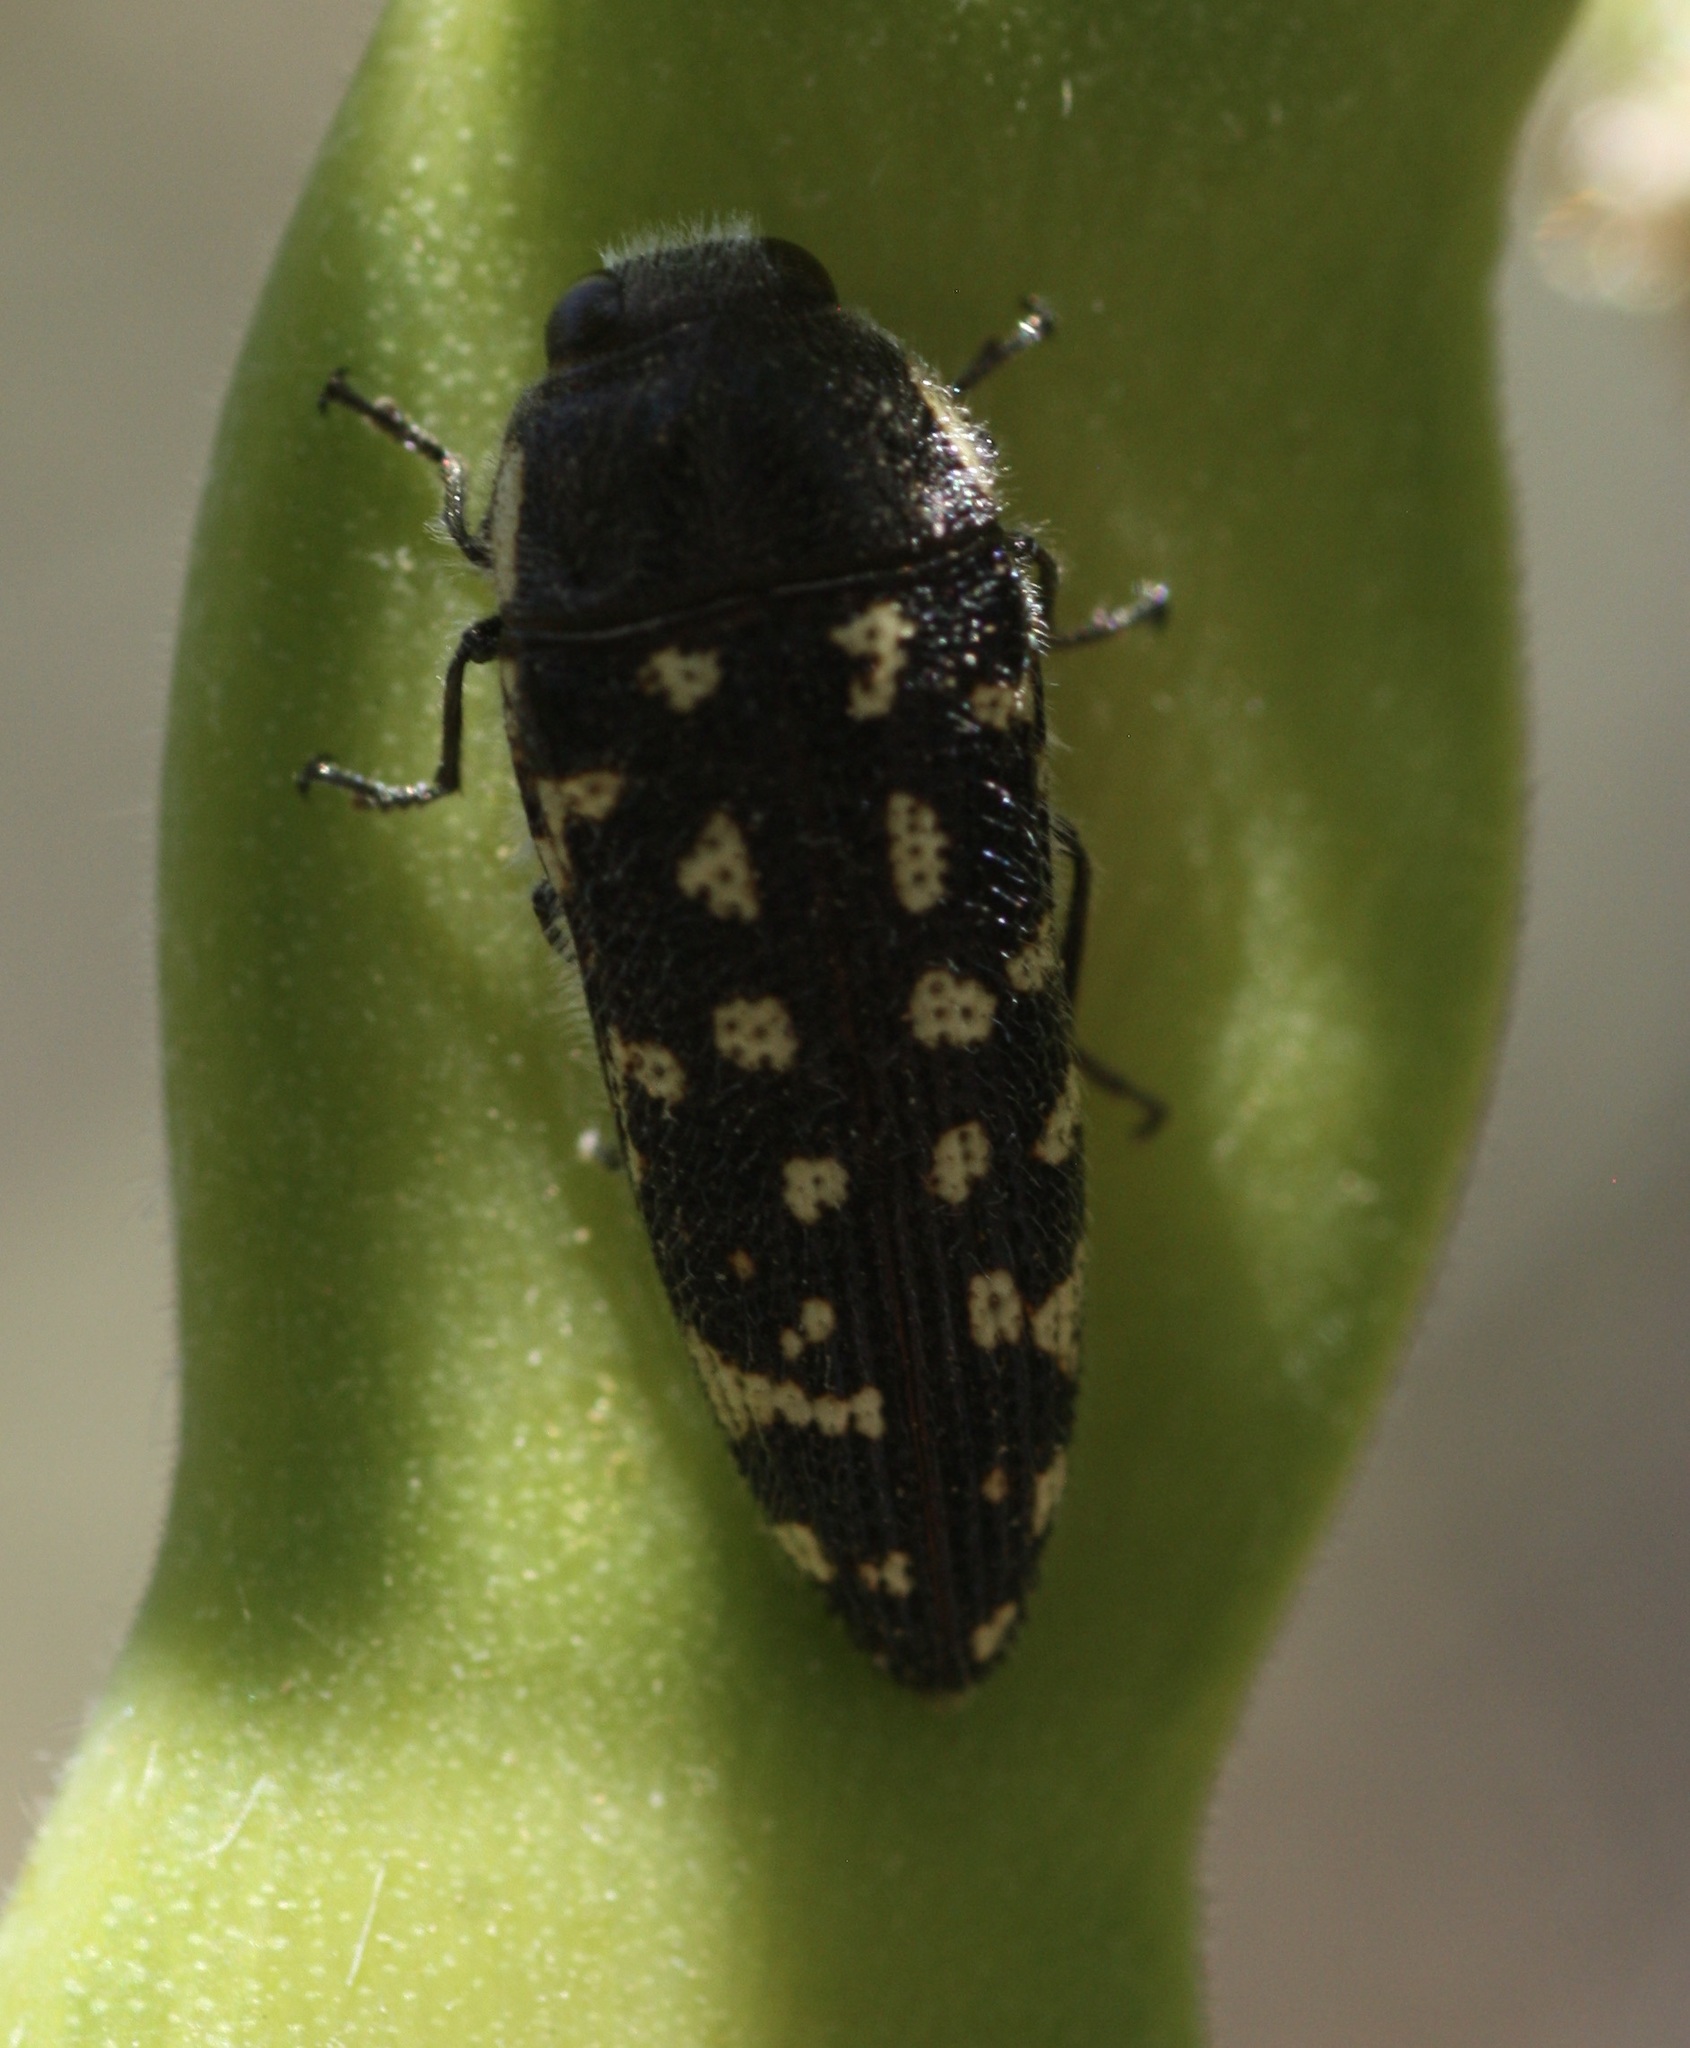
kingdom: Animalia
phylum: Arthropoda
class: Insecta
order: Coleoptera
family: Buprestidae
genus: Acmaeodera
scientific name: Acmaeodera serena
